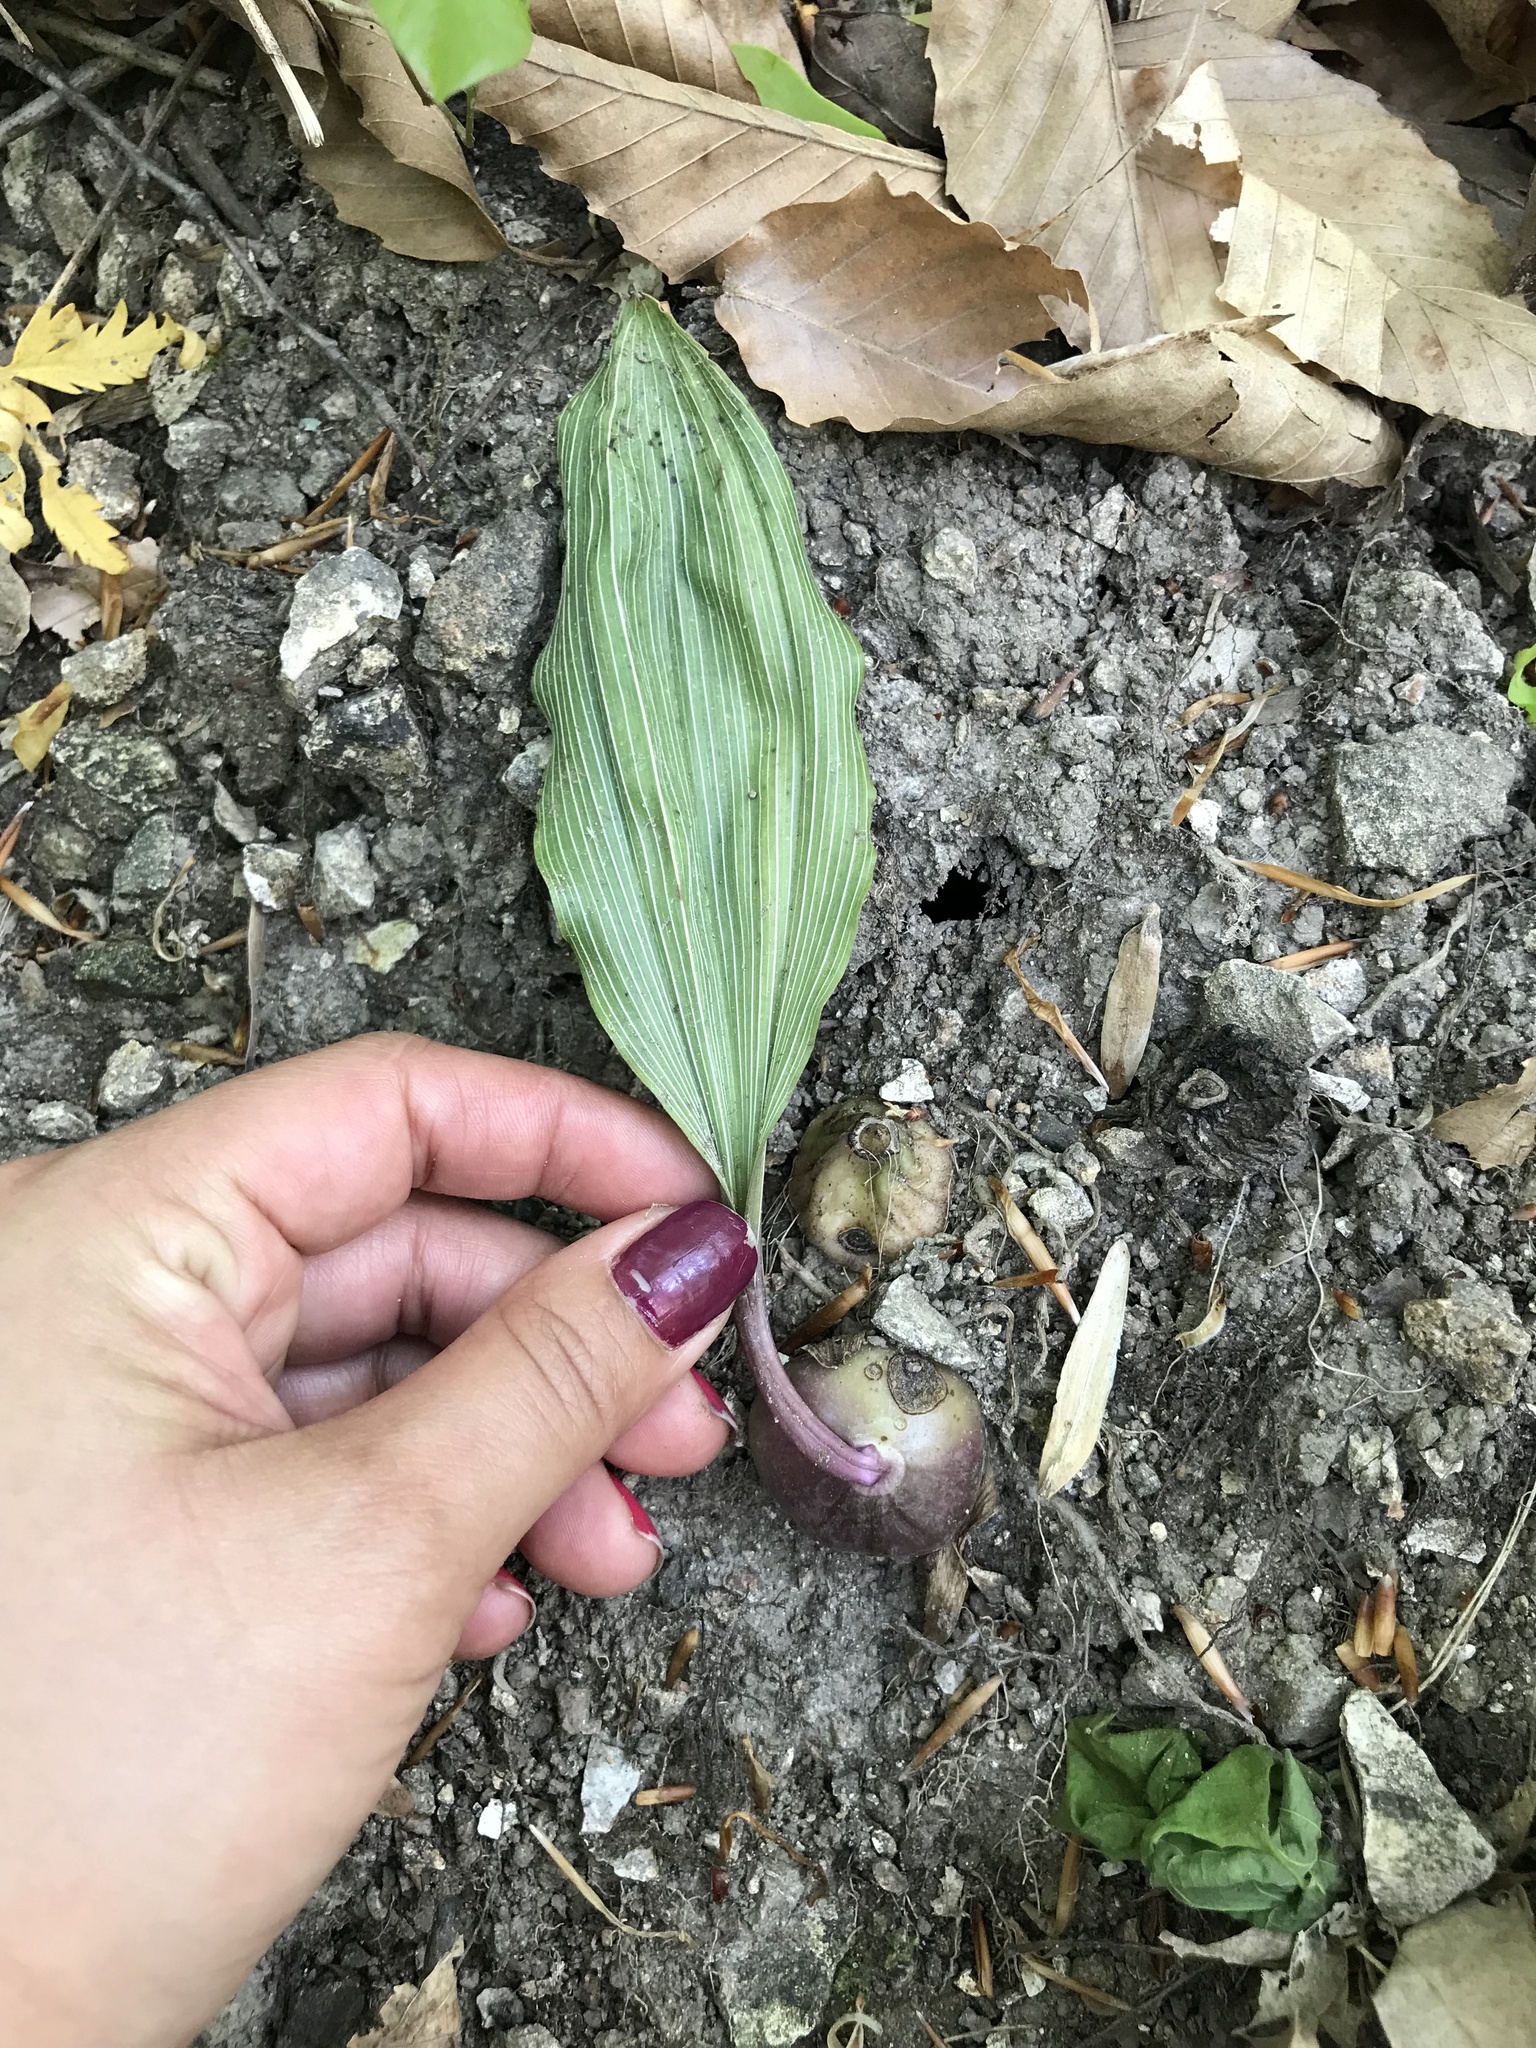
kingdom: Plantae
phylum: Tracheophyta
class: Liliopsida
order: Asparagales
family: Orchidaceae
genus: Aplectrum
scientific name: Aplectrum hyemale
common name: Adam-and-eve
